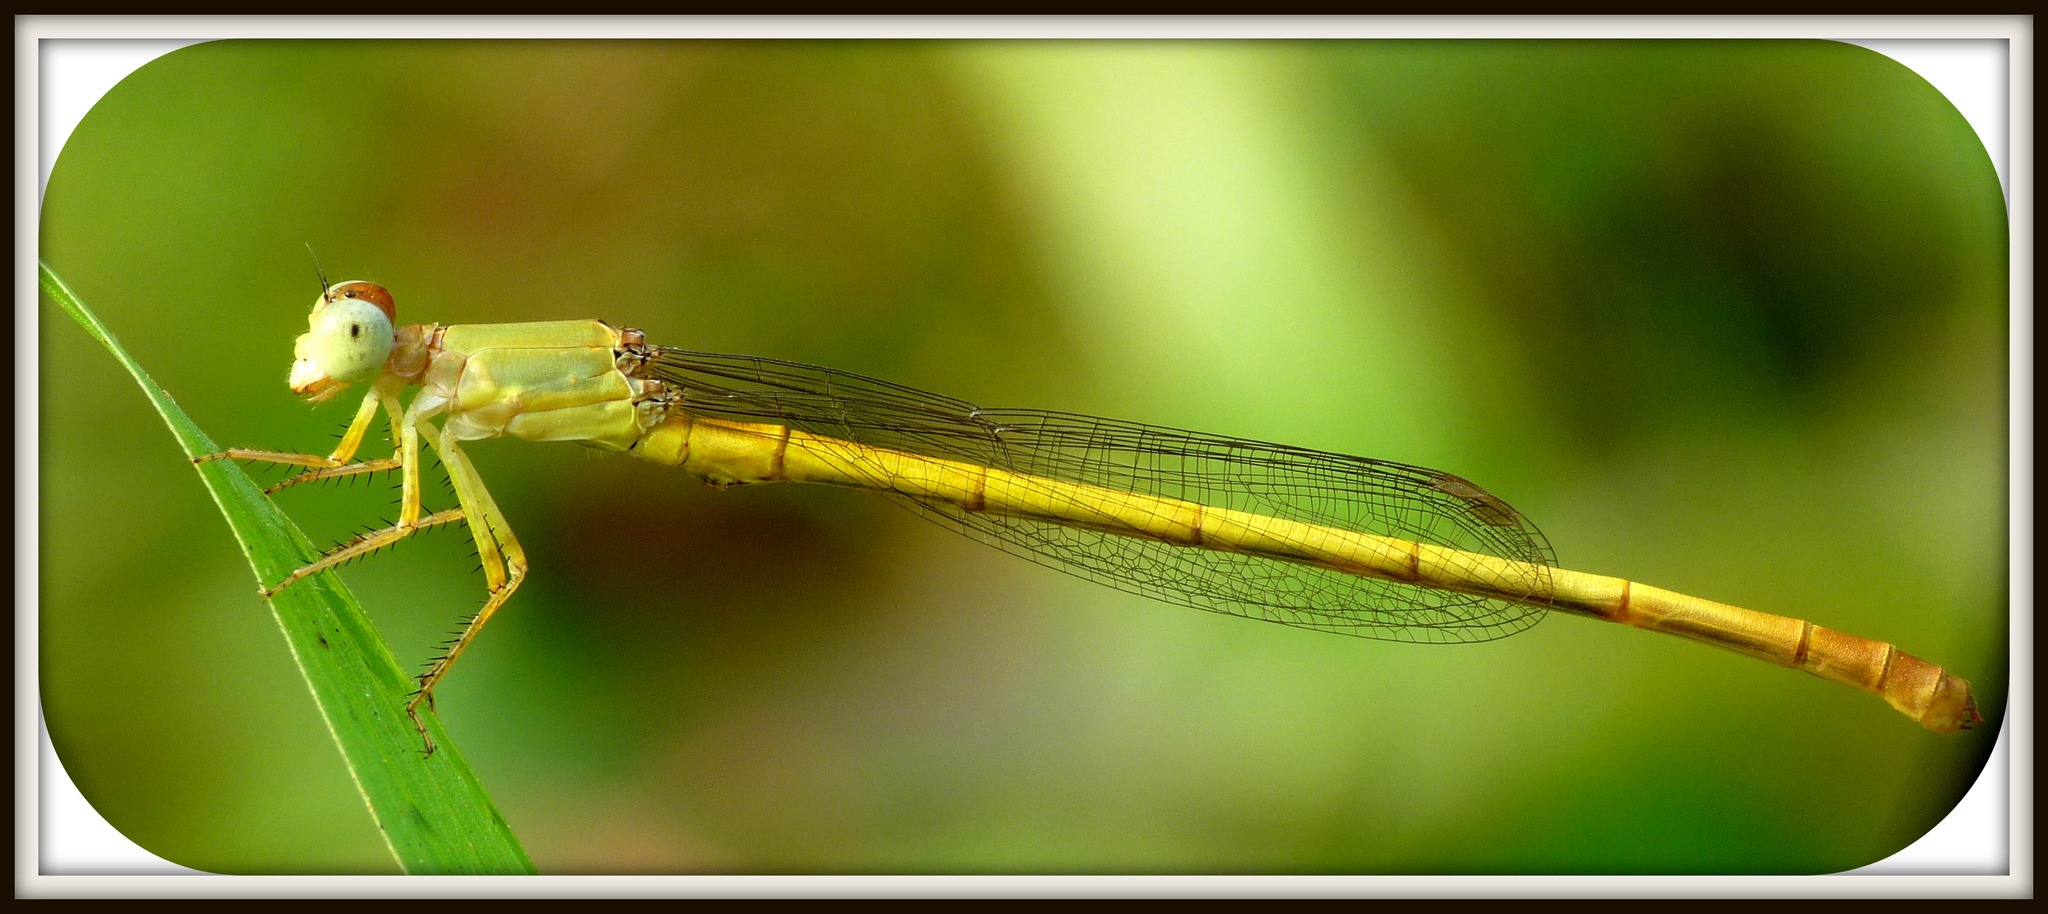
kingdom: Animalia
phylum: Arthropoda
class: Insecta
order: Odonata
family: Coenagrionidae
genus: Ceriagrion
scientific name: Ceriagrion coromandelianum
